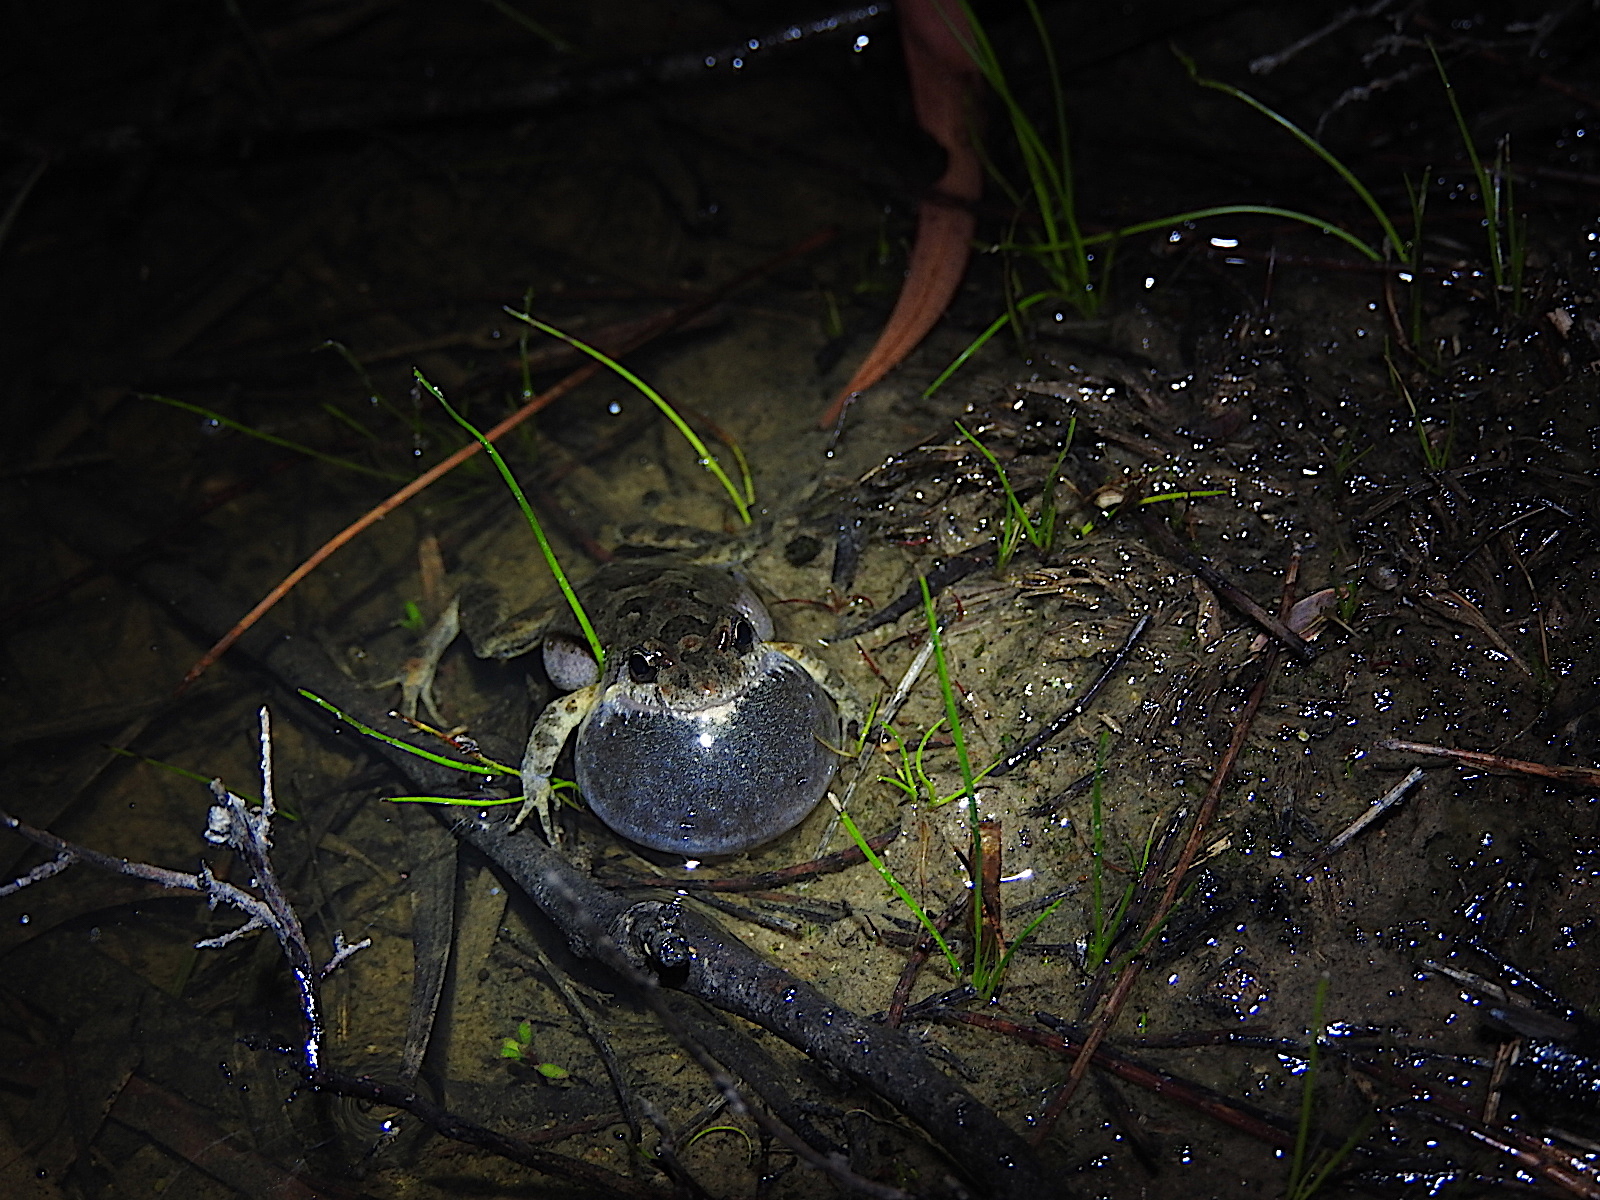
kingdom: Animalia
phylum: Chordata
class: Amphibia
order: Anura
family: Myobatrachidae
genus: Crinia
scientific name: Crinia signifera
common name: Brown froglet
